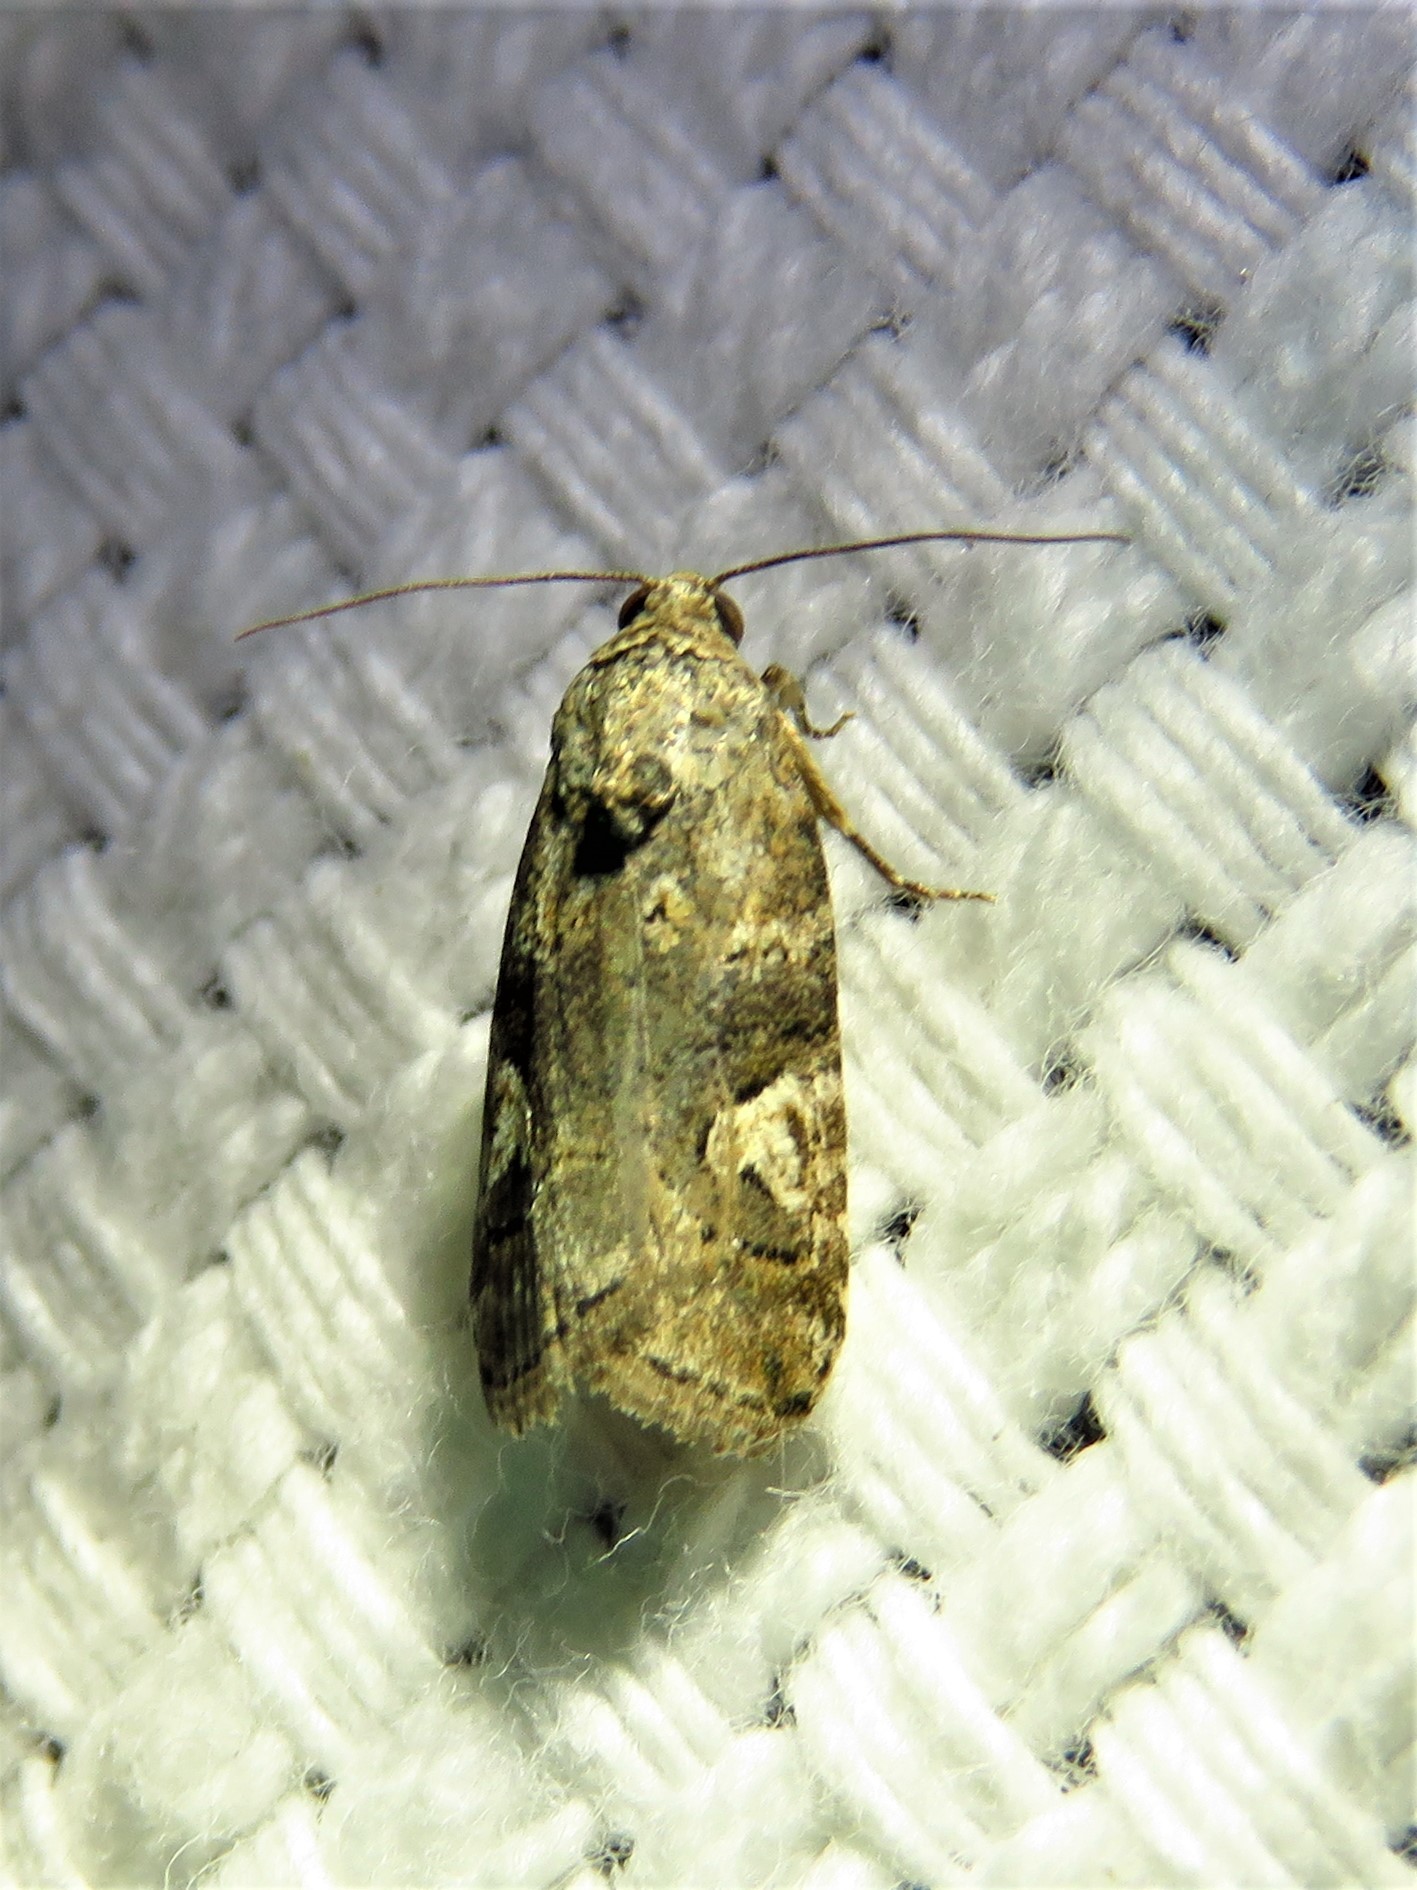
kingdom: Animalia
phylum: Arthropoda
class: Insecta
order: Lepidoptera
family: Noctuidae
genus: Metaponpneumata
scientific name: Metaponpneumata rogenhoferi
